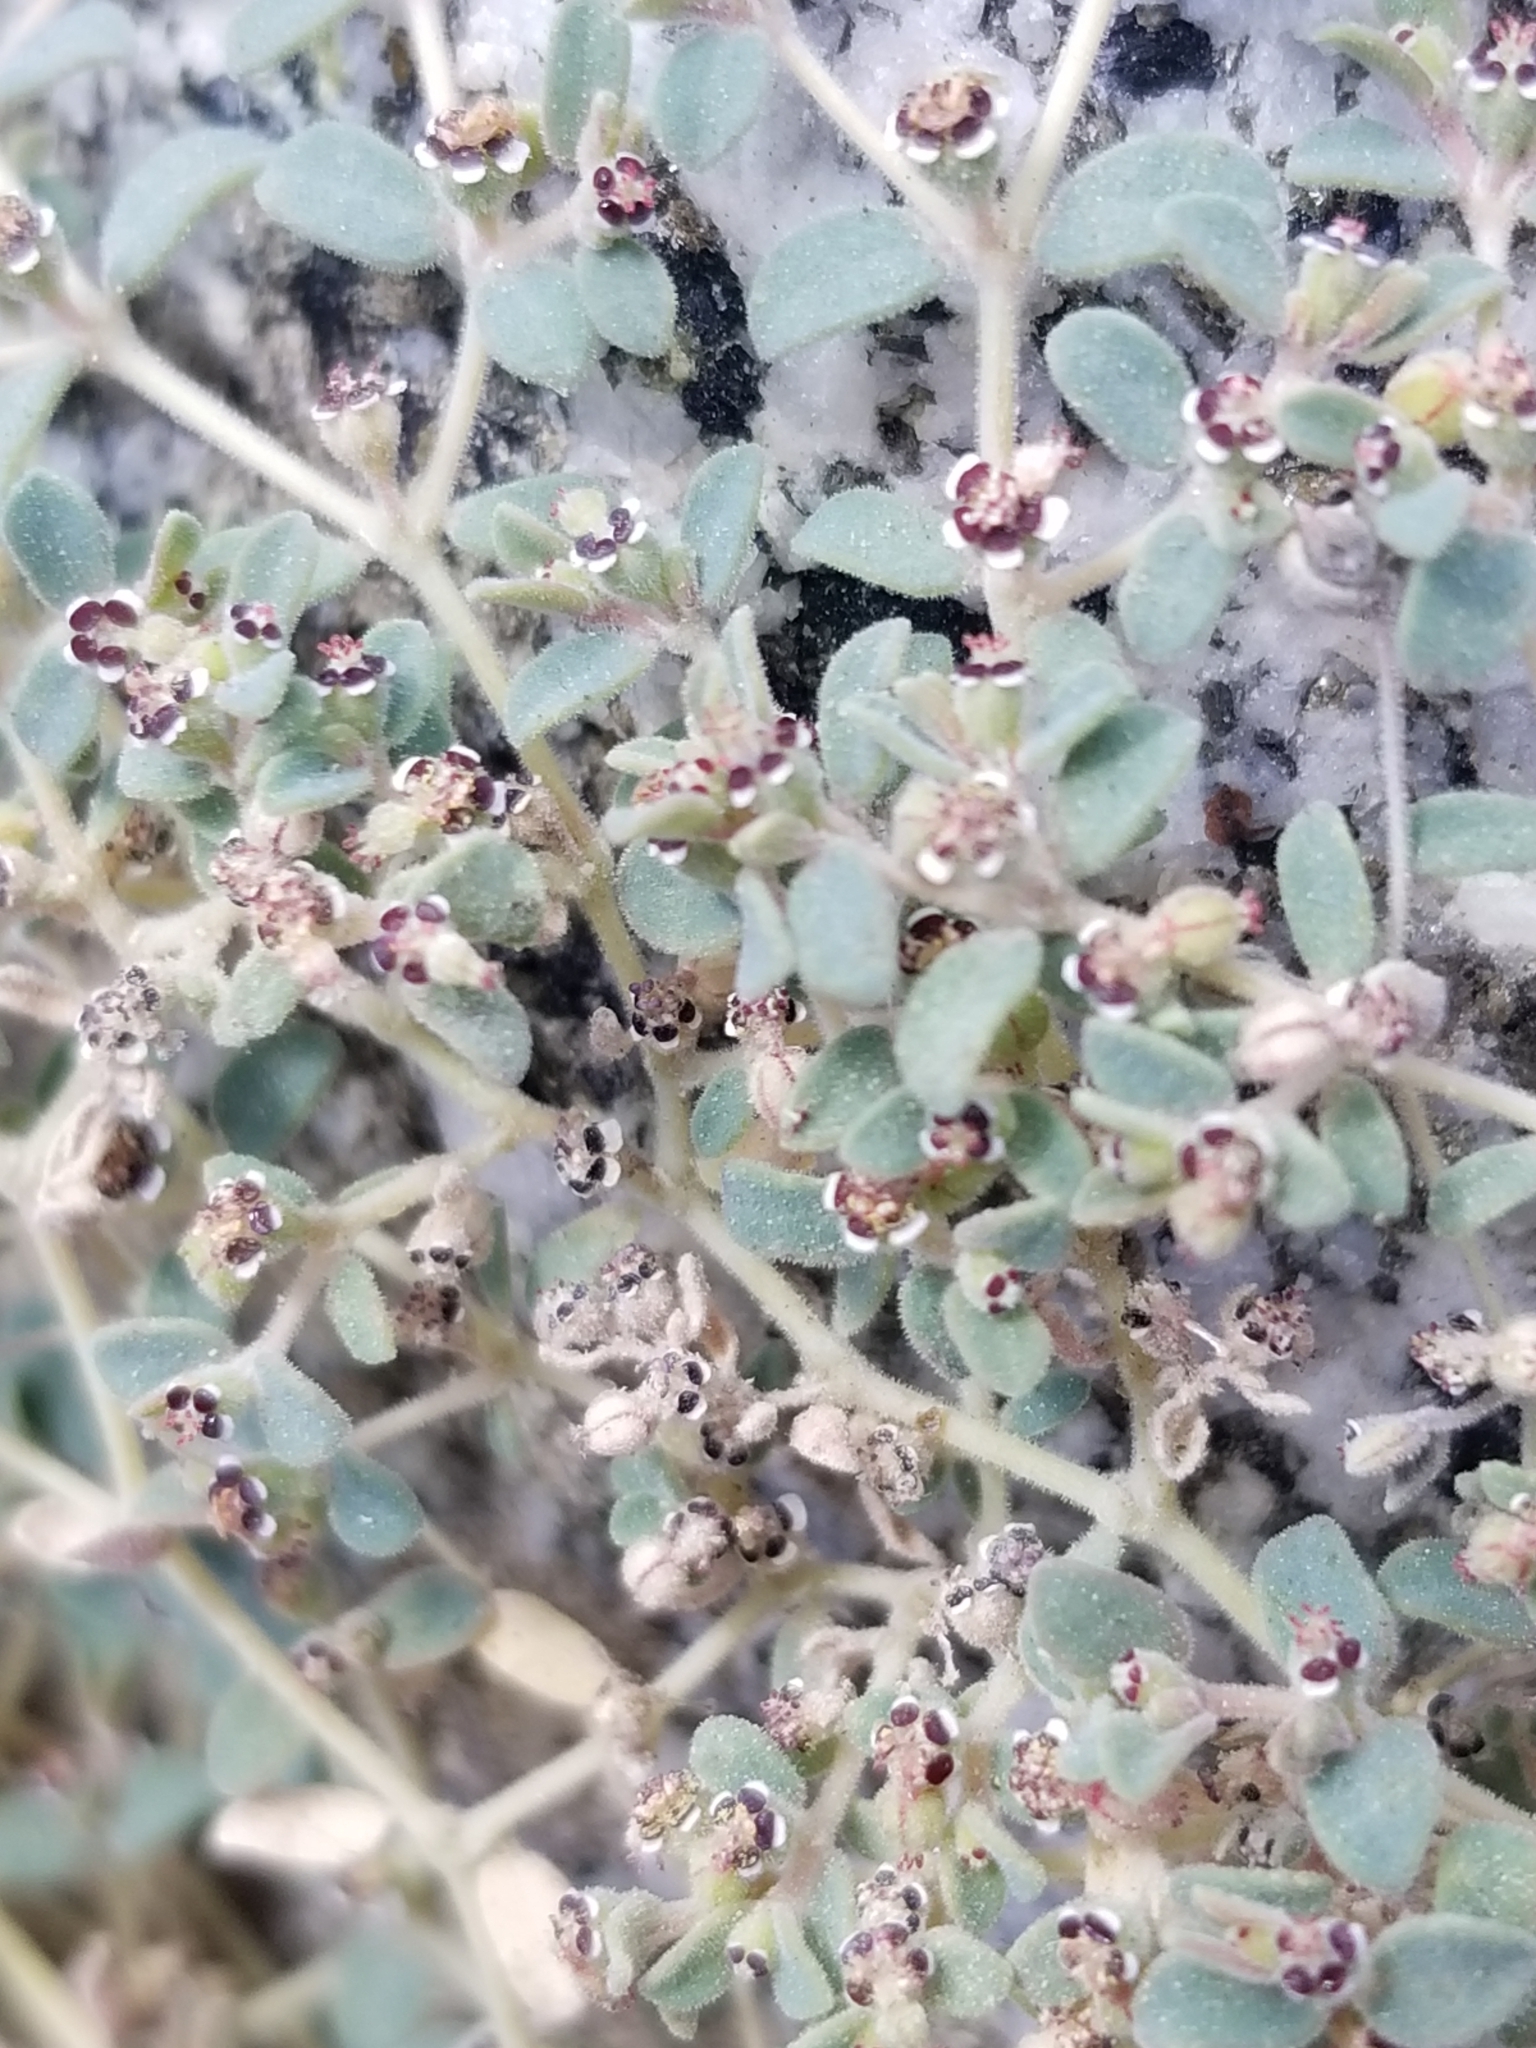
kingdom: Plantae
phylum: Tracheophyta
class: Magnoliopsida
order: Malpighiales
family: Euphorbiaceae
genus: Euphorbia
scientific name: Euphorbia polycarpa
